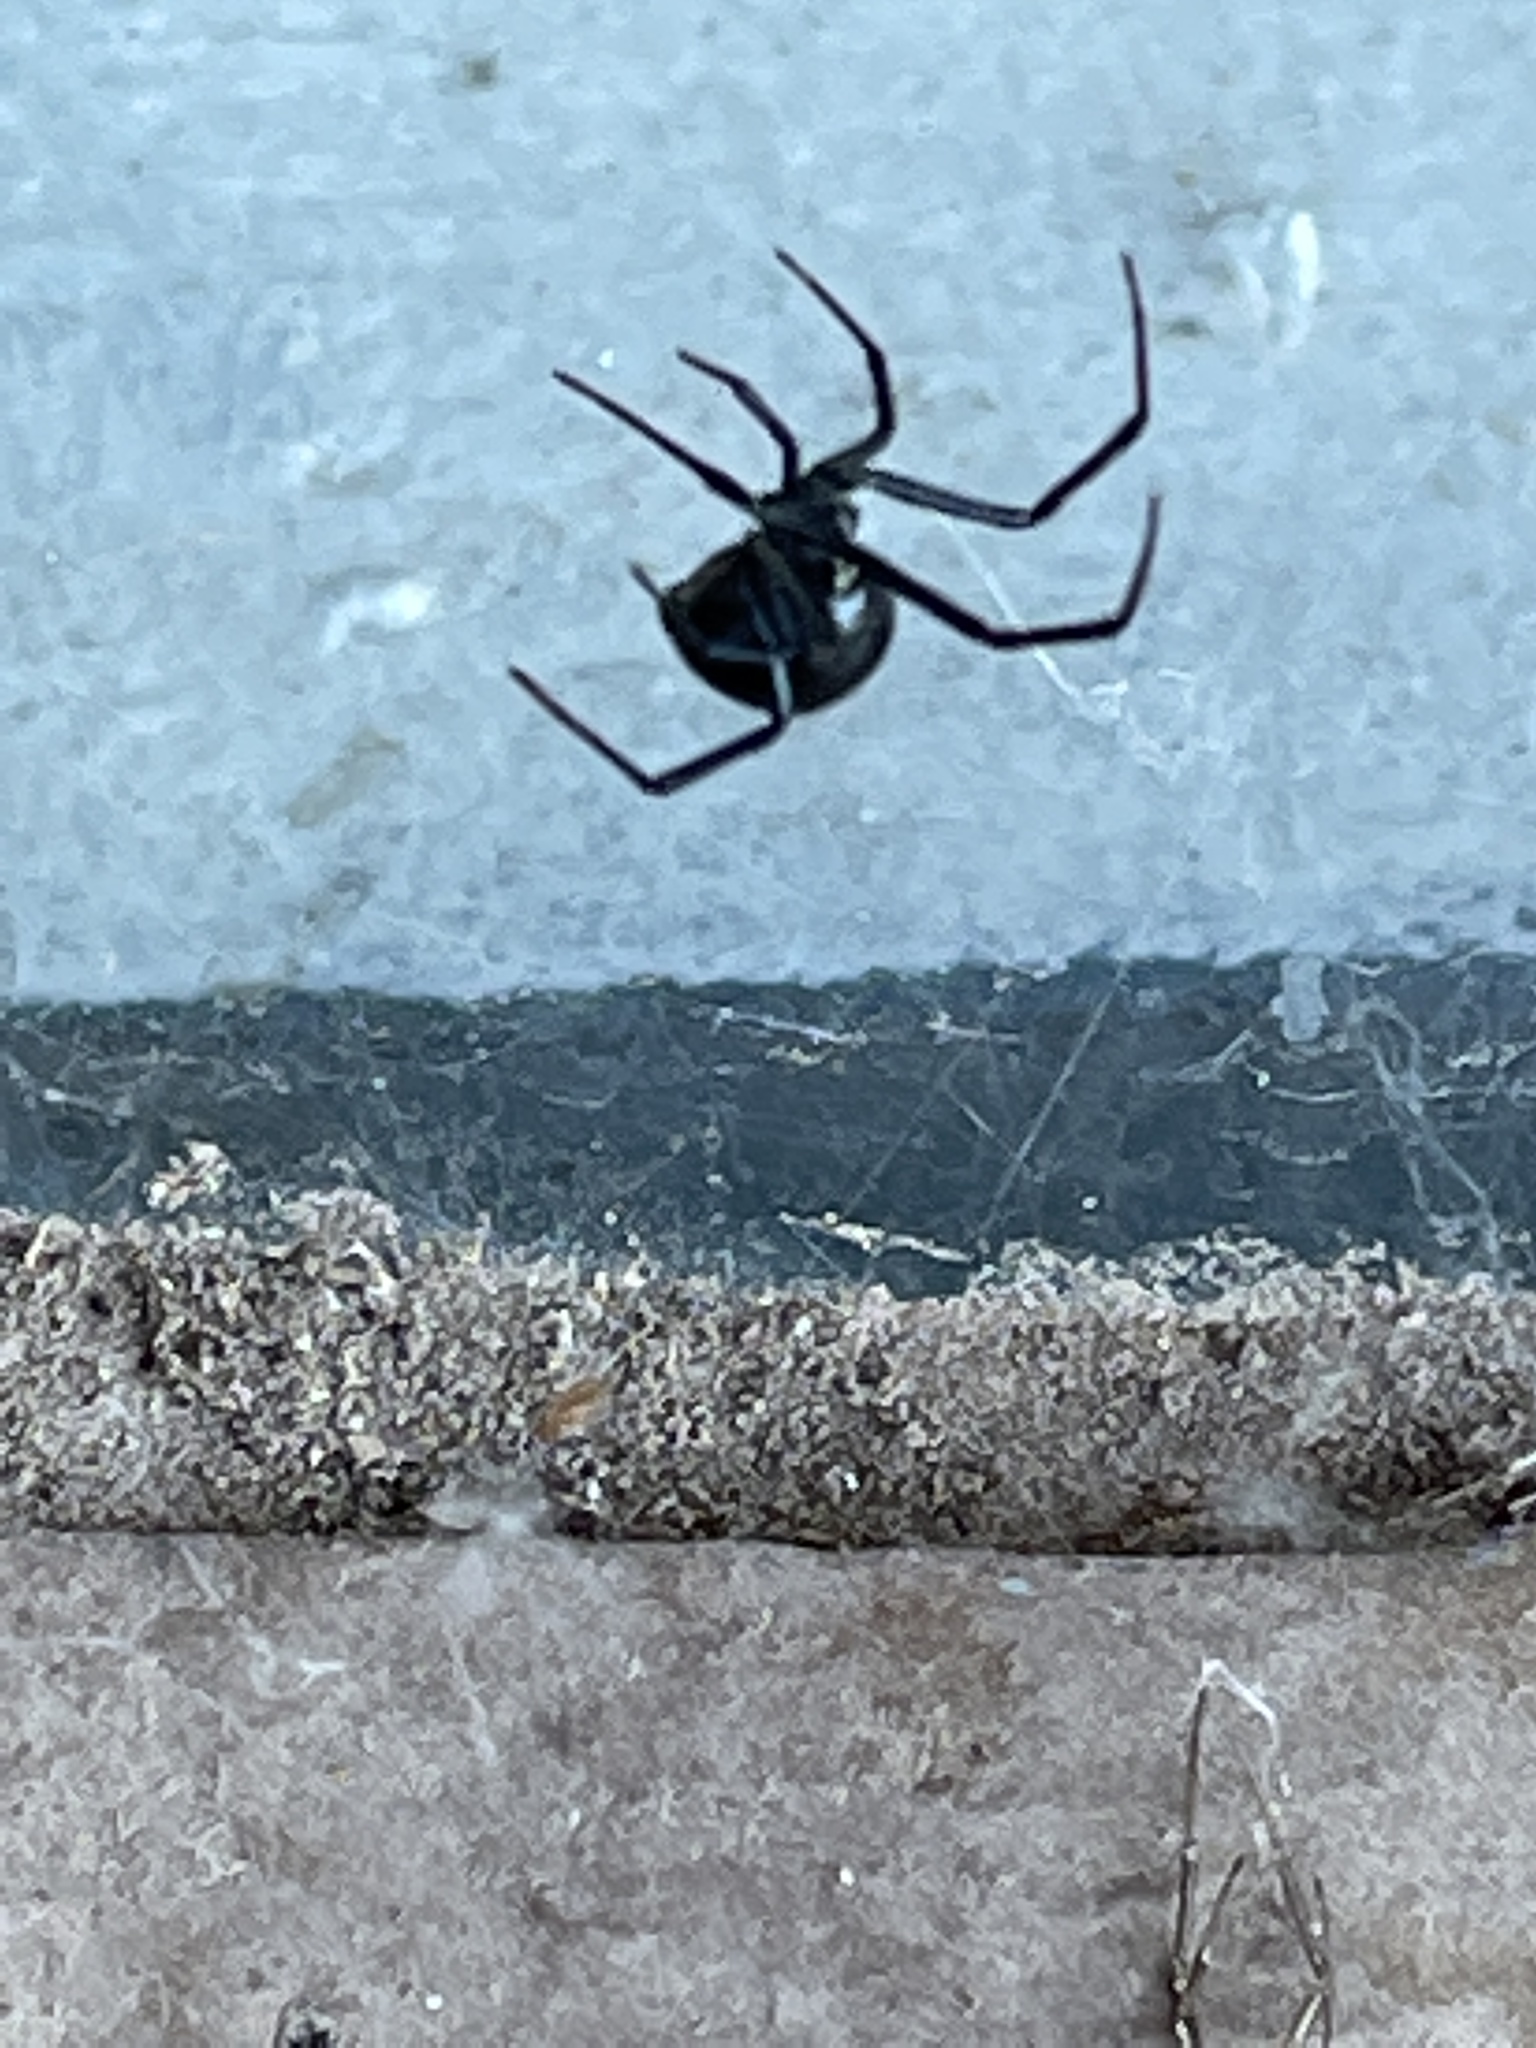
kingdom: Animalia
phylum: Arthropoda
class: Arachnida
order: Araneae
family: Theridiidae
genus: Latrodectus
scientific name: Latrodectus hesperus
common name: Western black widow
